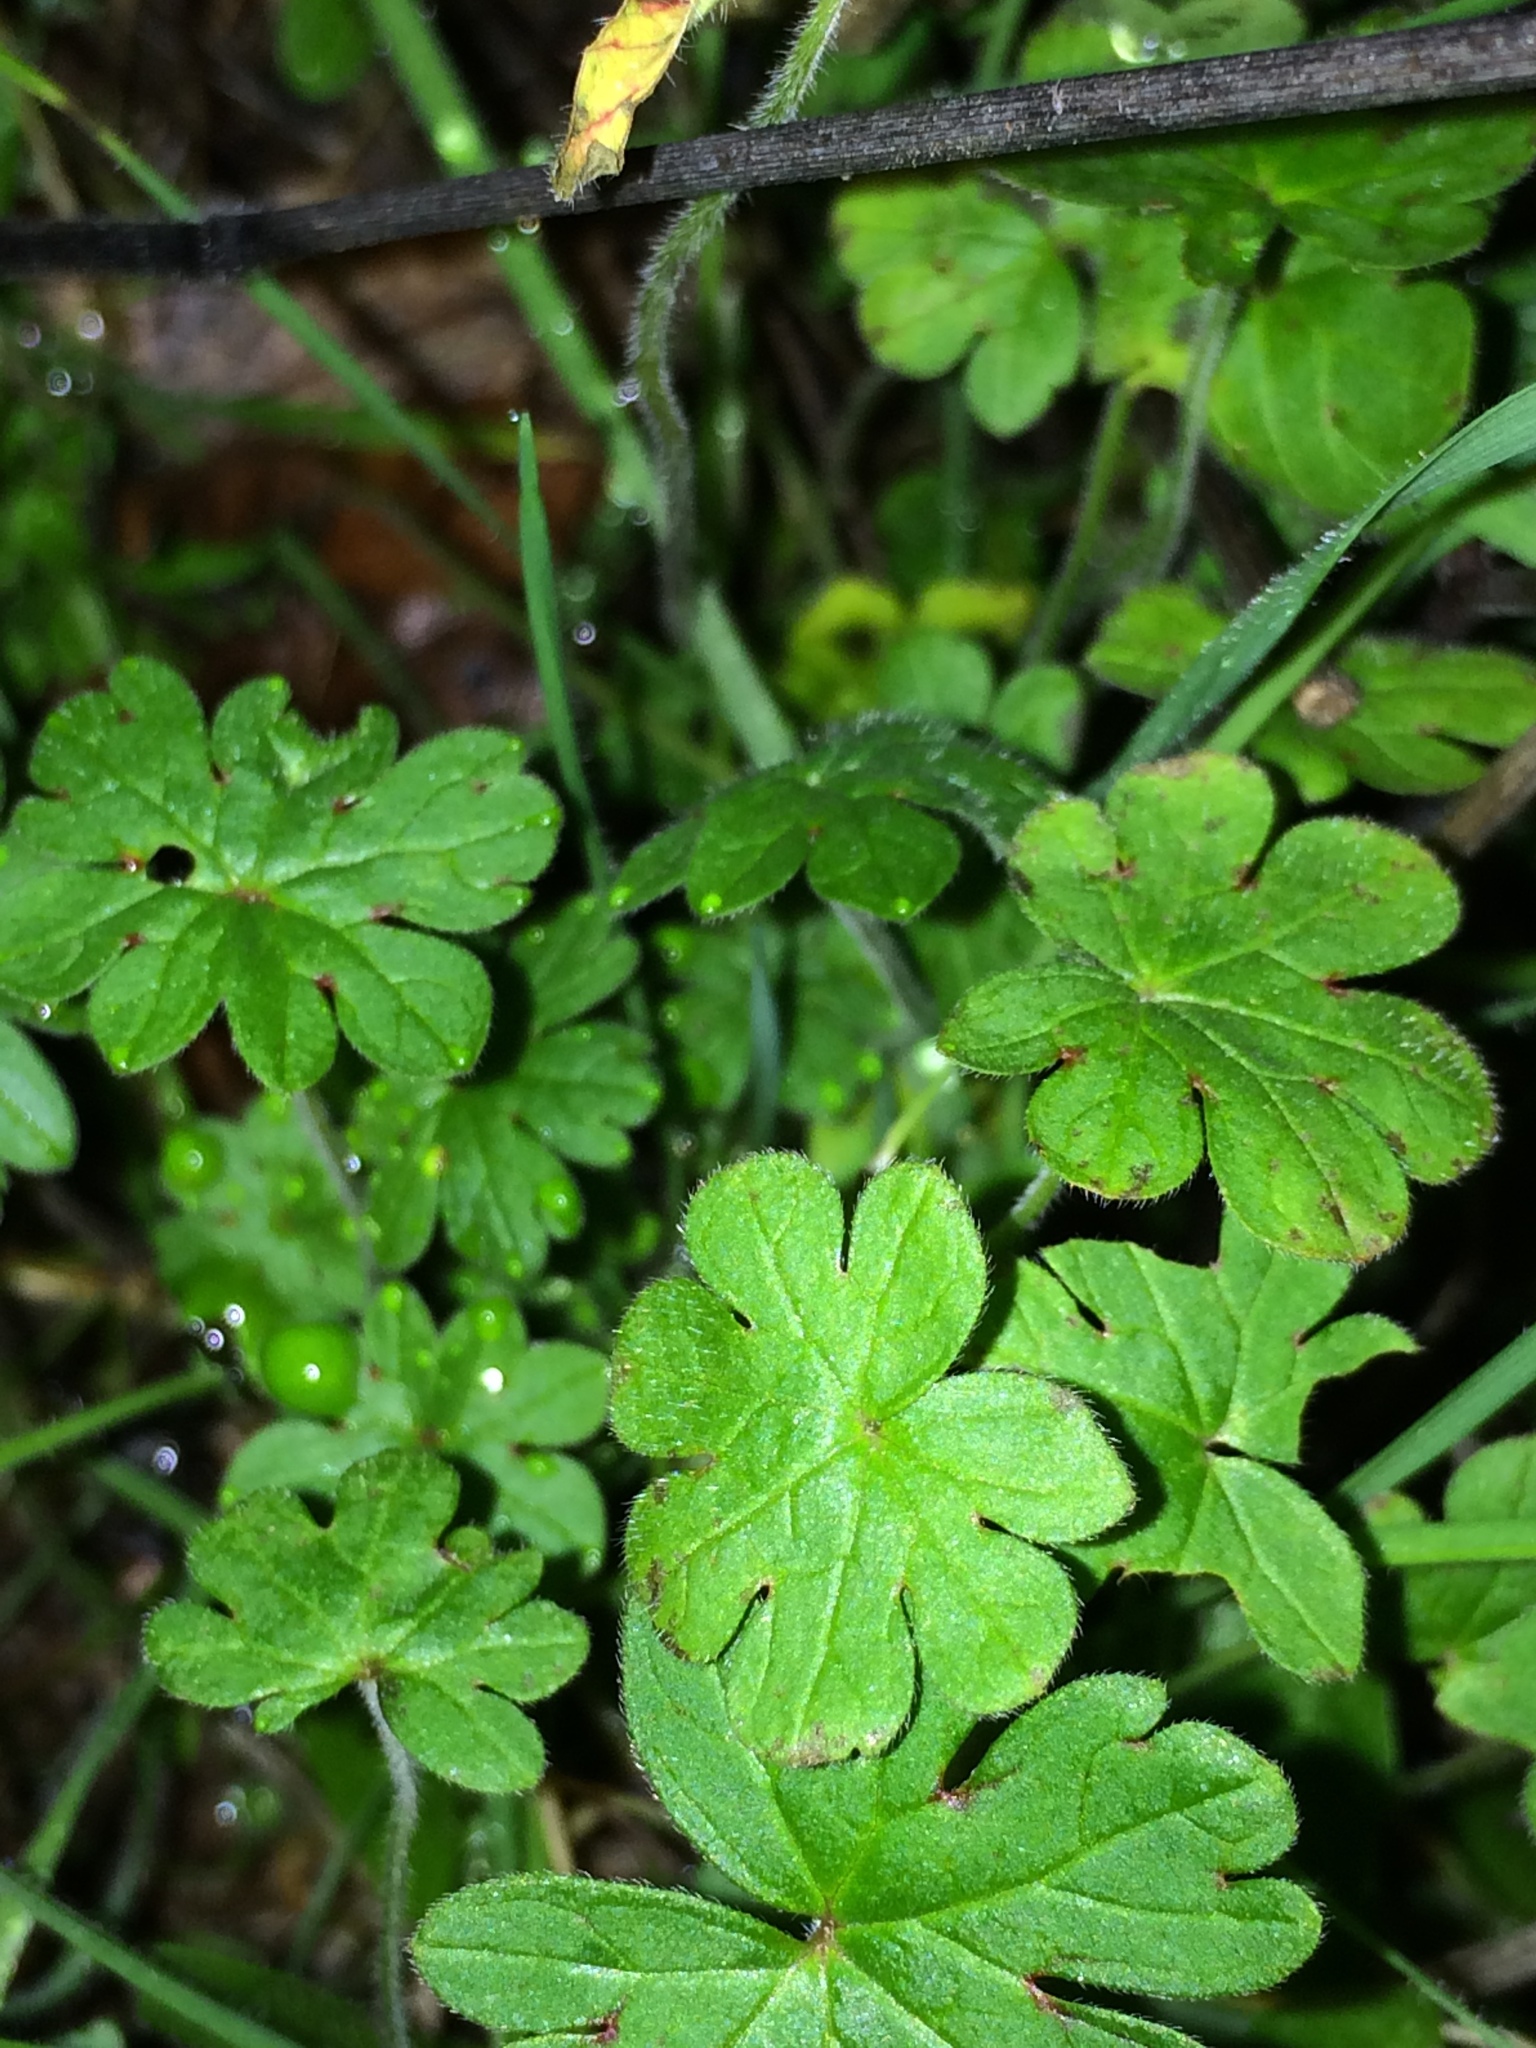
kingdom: Plantae
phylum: Tracheophyta
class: Magnoliopsida
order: Geraniales
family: Geraniaceae
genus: Geranium
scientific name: Geranium molle
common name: Dove's-foot crane's-bill
